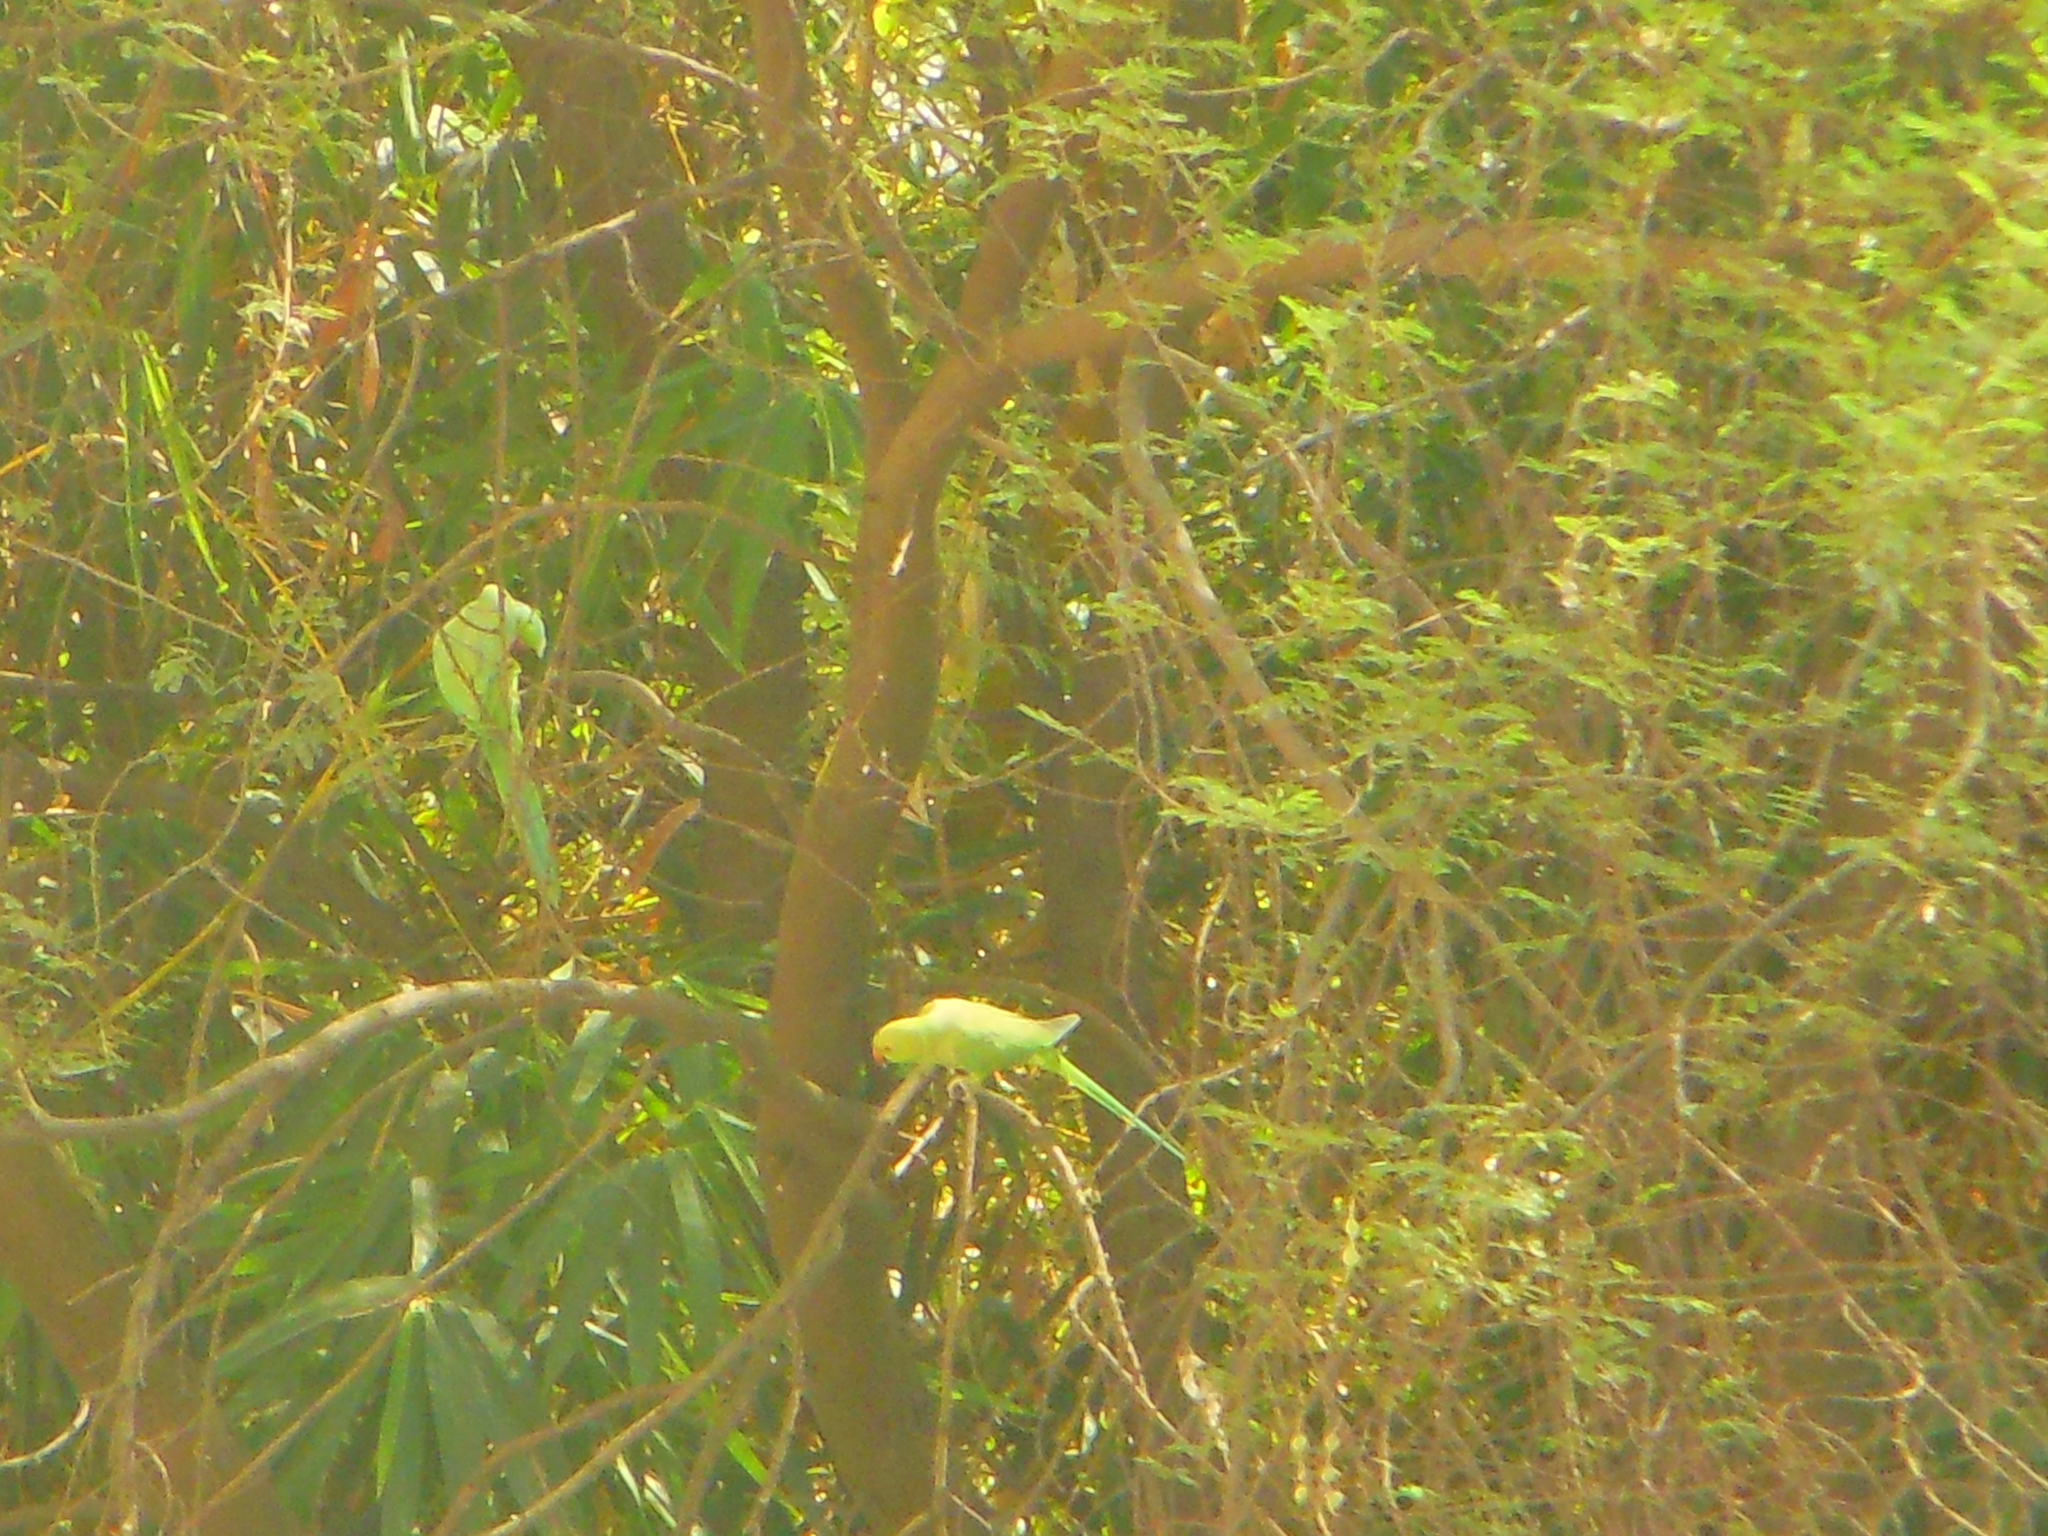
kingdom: Animalia
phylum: Chordata
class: Aves
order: Psittaciformes
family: Psittacidae
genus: Psittacula
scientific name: Psittacula krameri
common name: Rose-ringed parakeet
